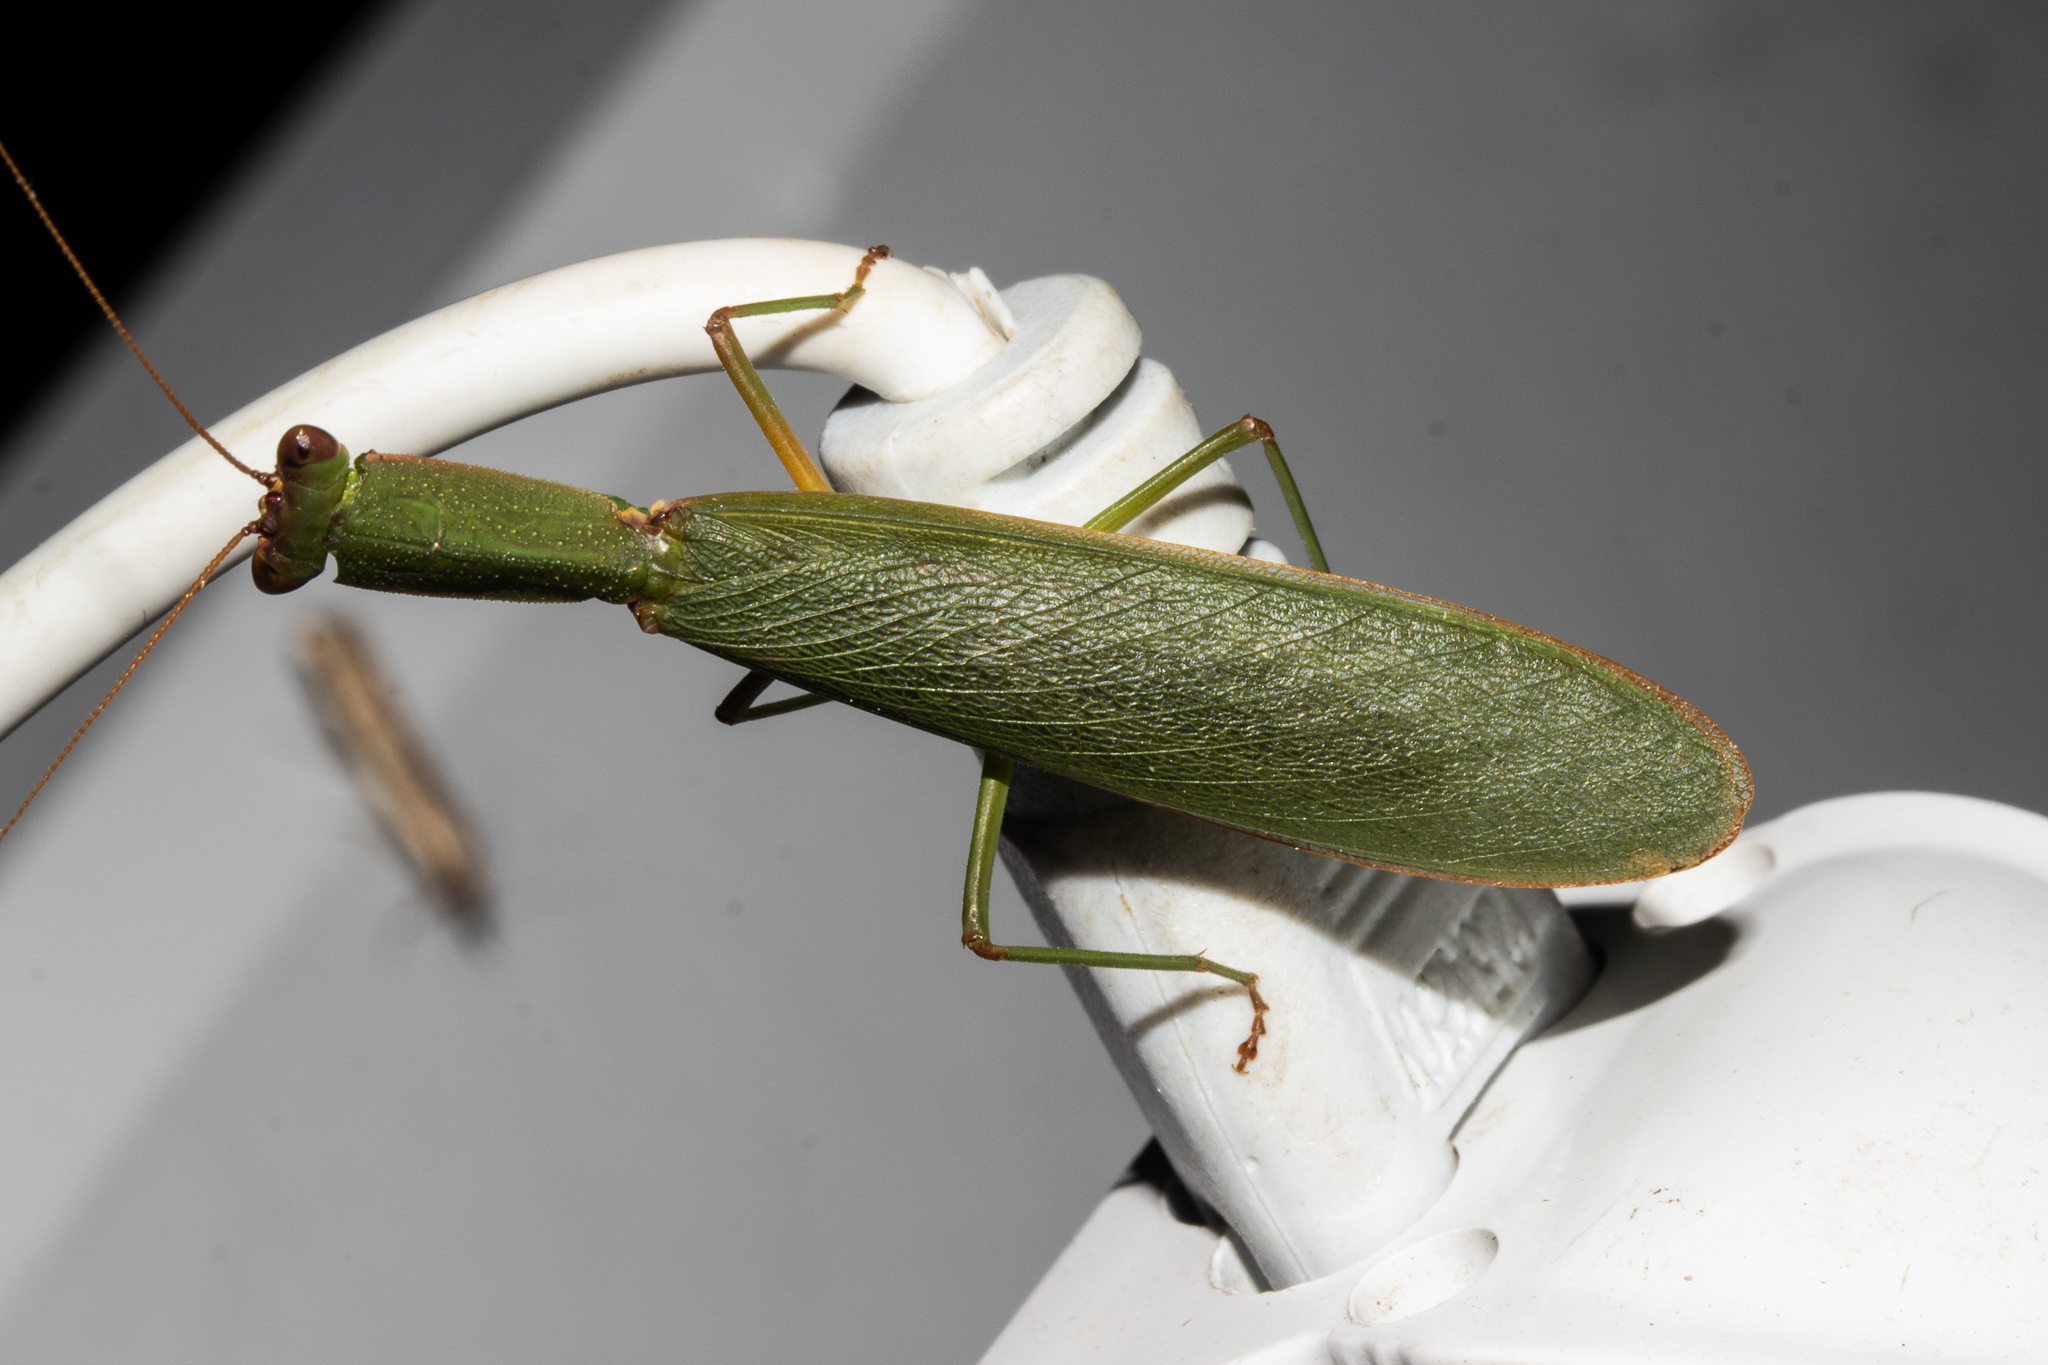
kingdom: Animalia
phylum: Arthropoda
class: Insecta
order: Mantodea
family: Mantidae
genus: Orthodera
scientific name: Orthodera novaezealandiae
